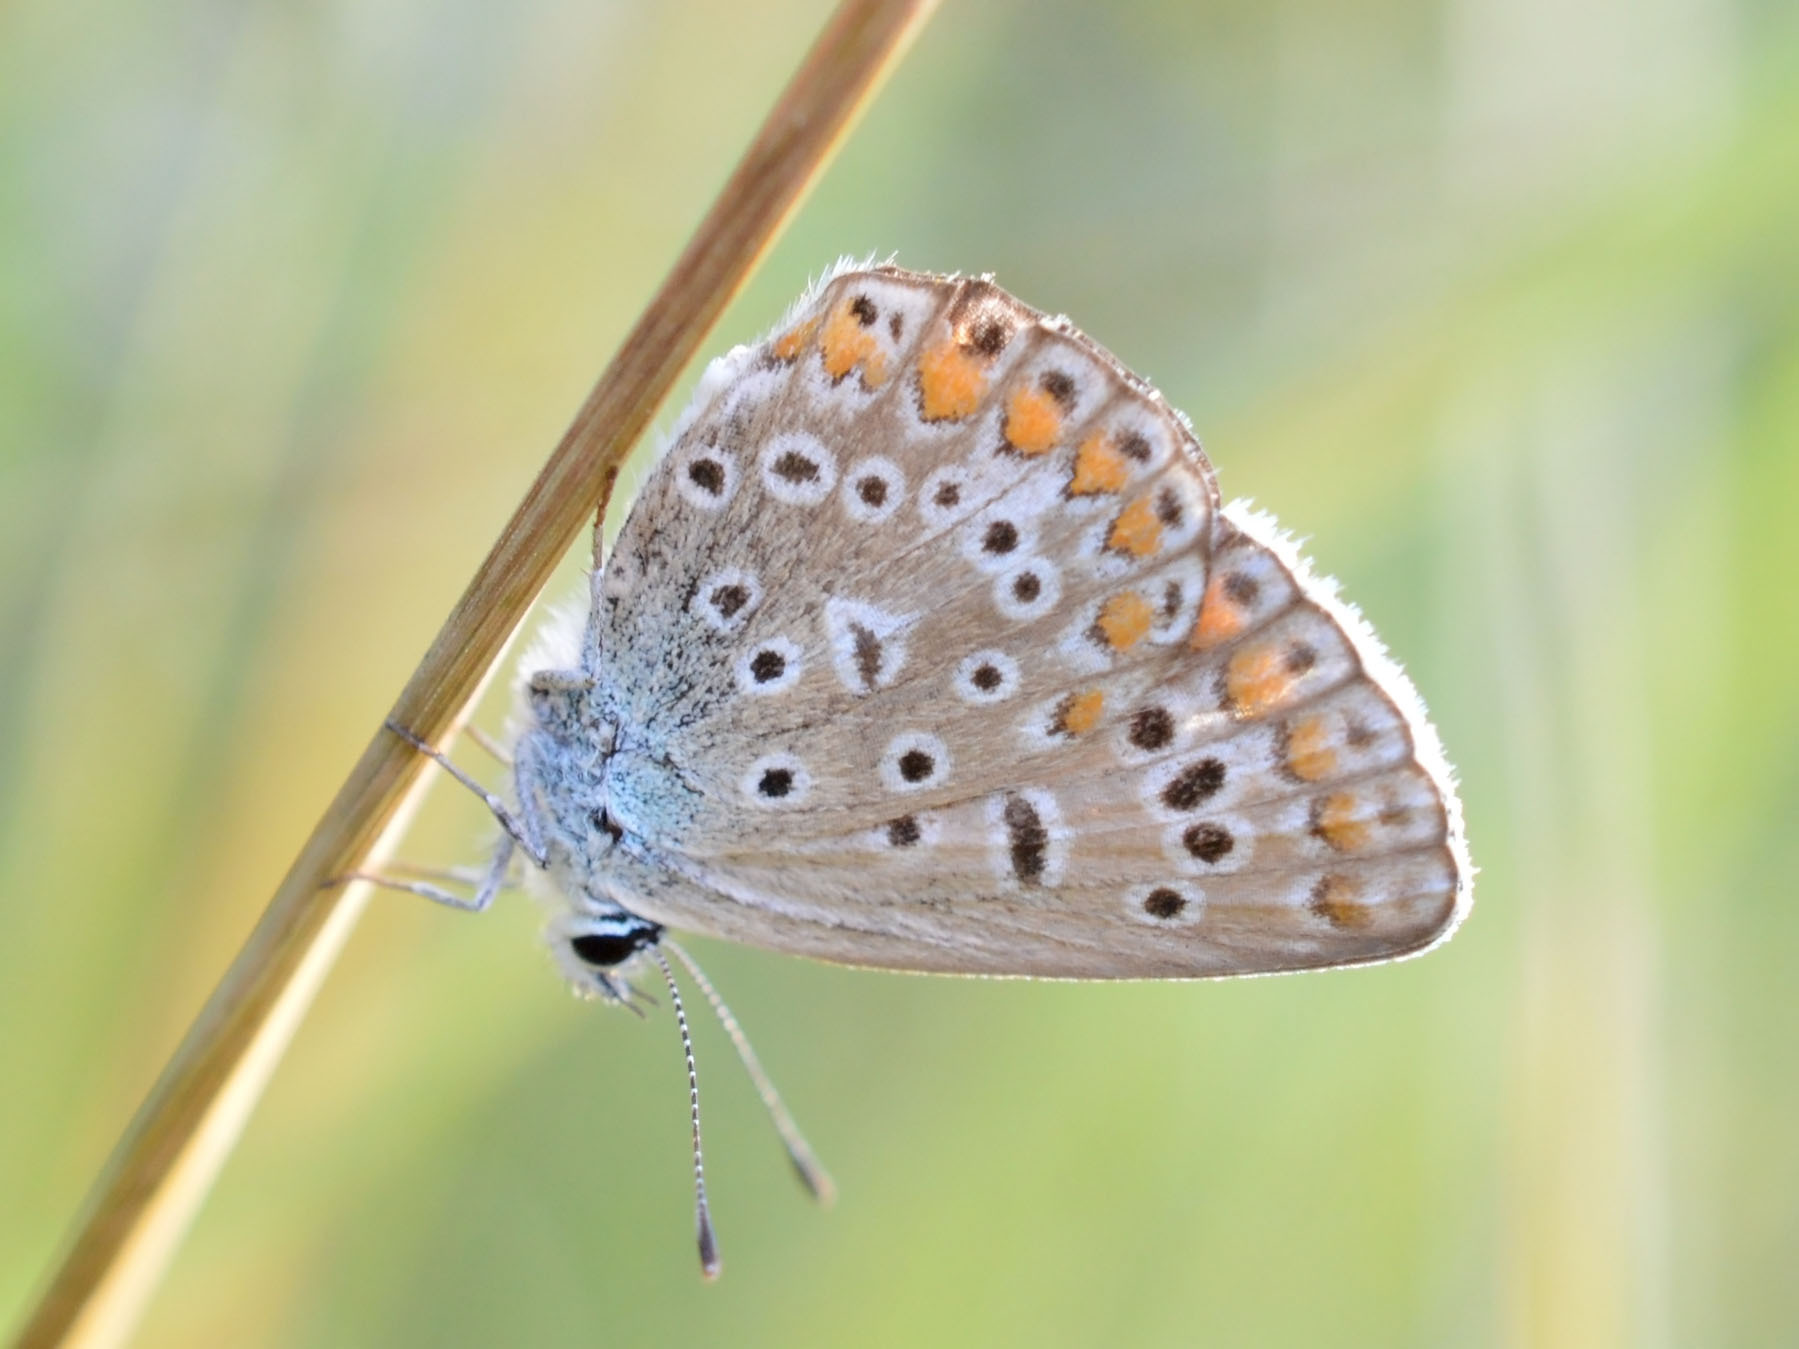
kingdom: Animalia
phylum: Arthropoda
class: Insecta
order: Lepidoptera
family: Lycaenidae
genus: Polyommatus
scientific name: Polyommatus icarus
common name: Common blue
